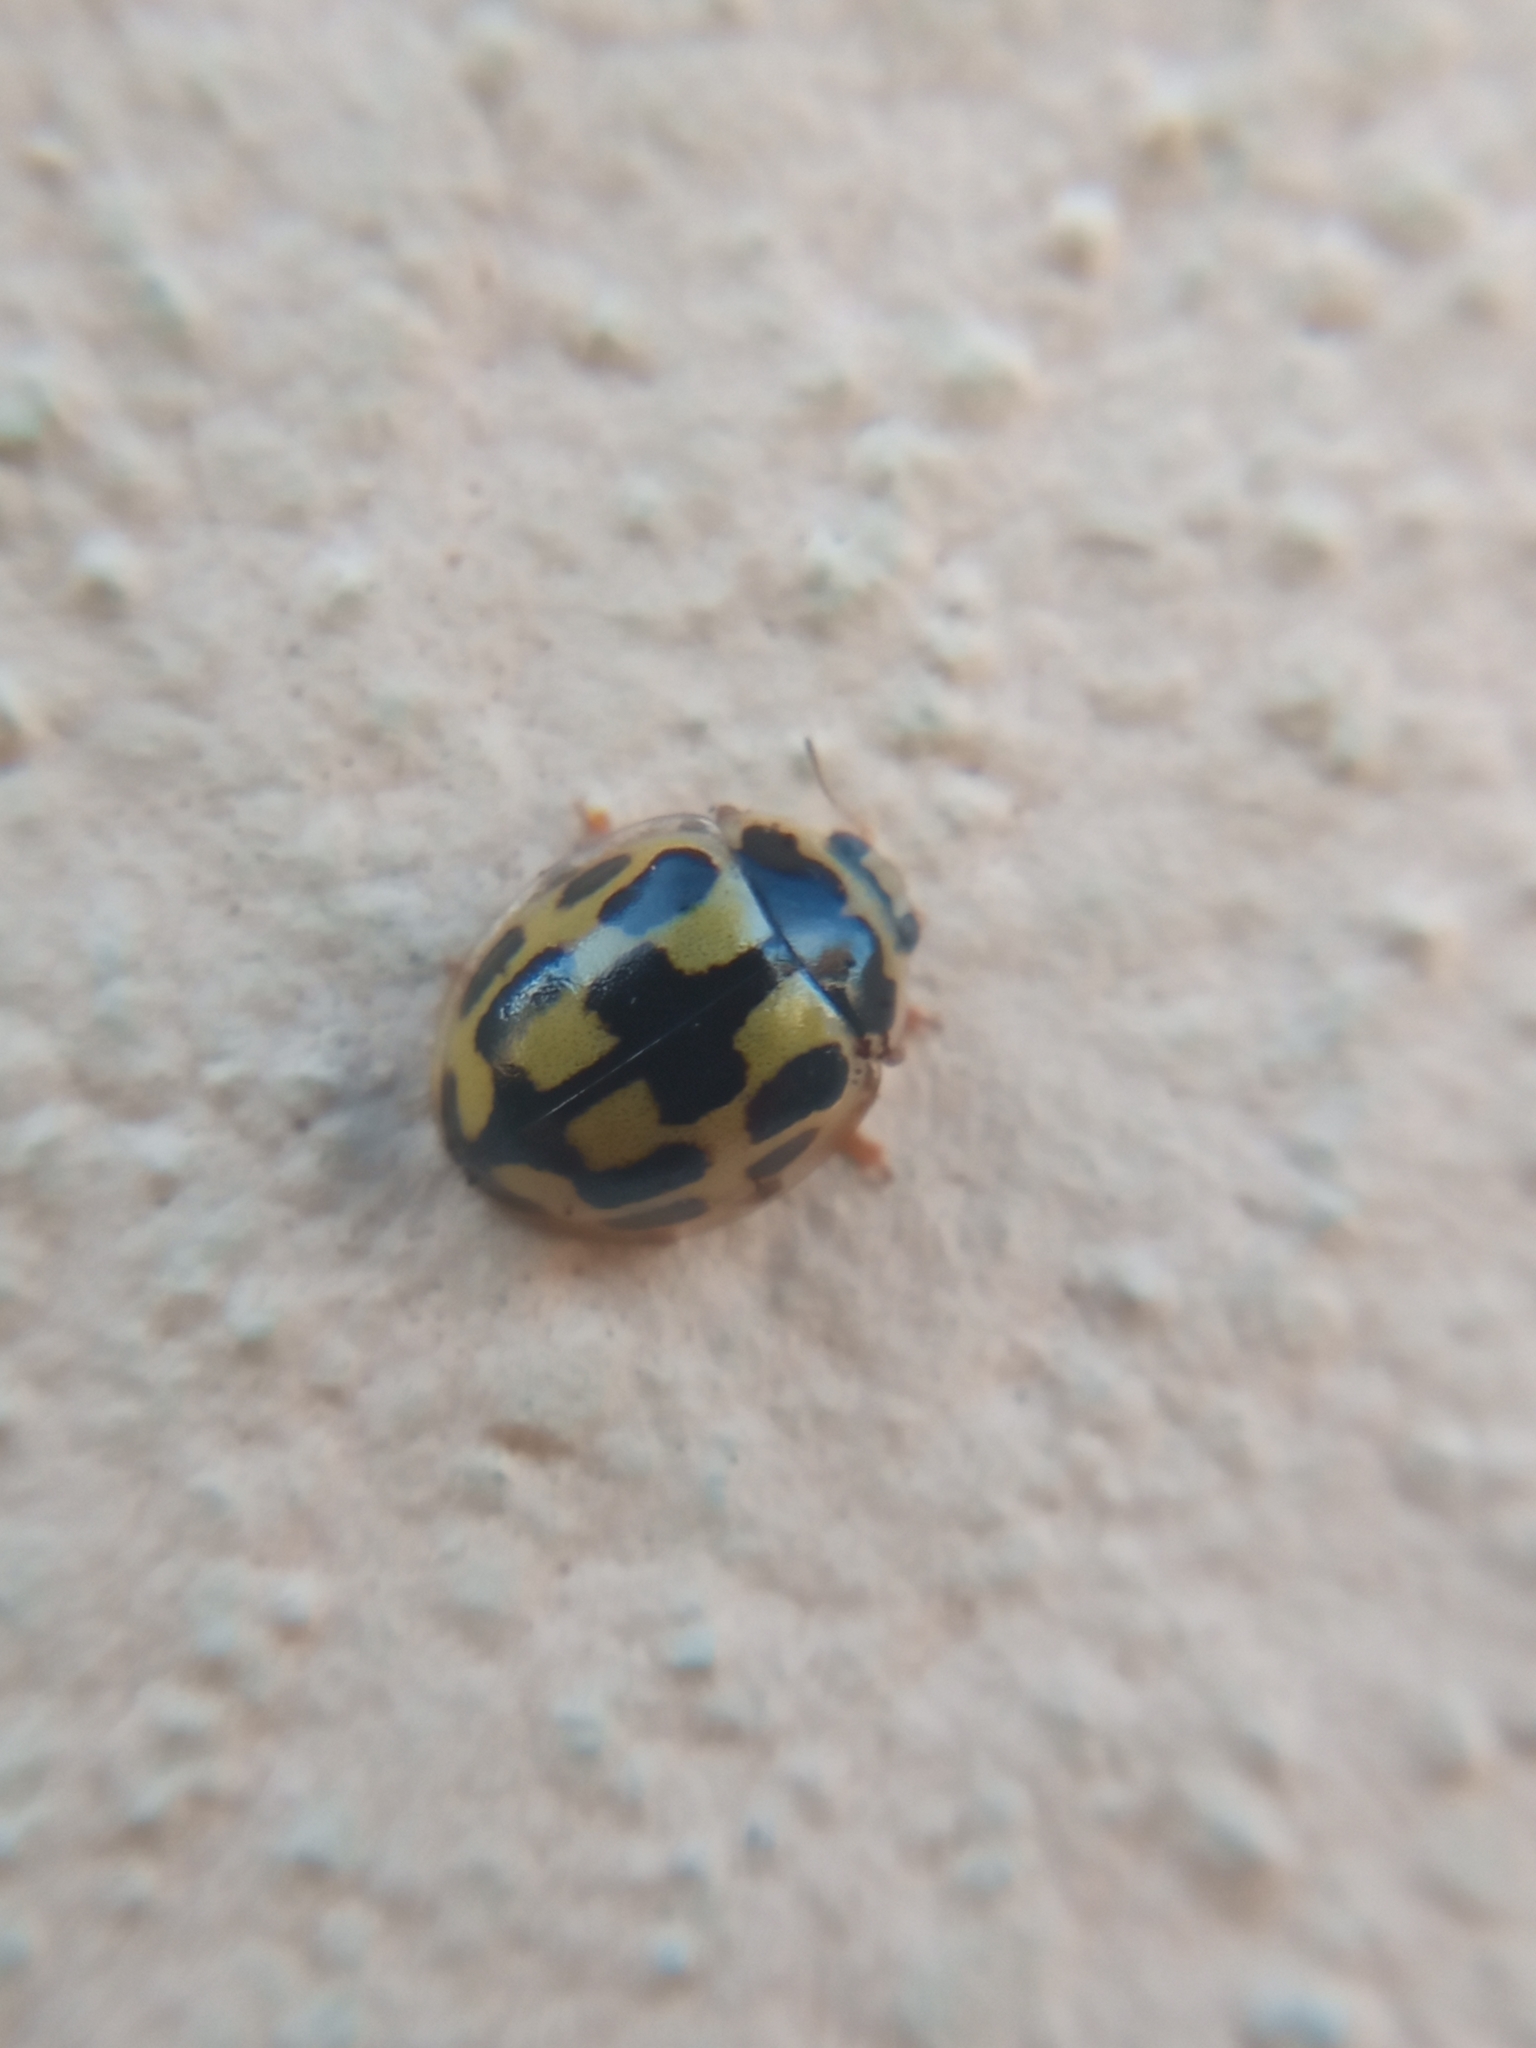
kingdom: Animalia
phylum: Arthropoda
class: Insecta
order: Coleoptera
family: Coccinellidae
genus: Propylaea
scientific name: Propylaea quatuordecimpunctata
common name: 14-spotted ladybird beetle
